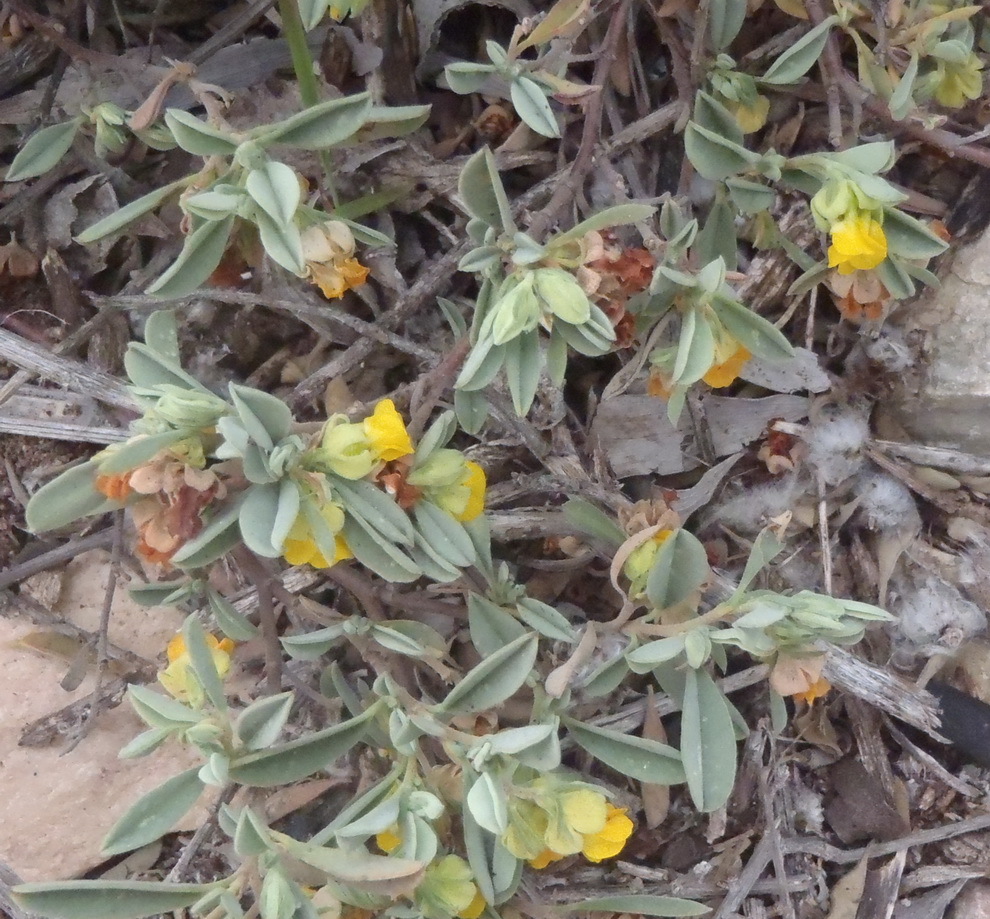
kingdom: Plantae
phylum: Tracheophyta
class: Magnoliopsida
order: Malvales
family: Malvaceae
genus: Hermannia
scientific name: Hermannia lavandulifolia
